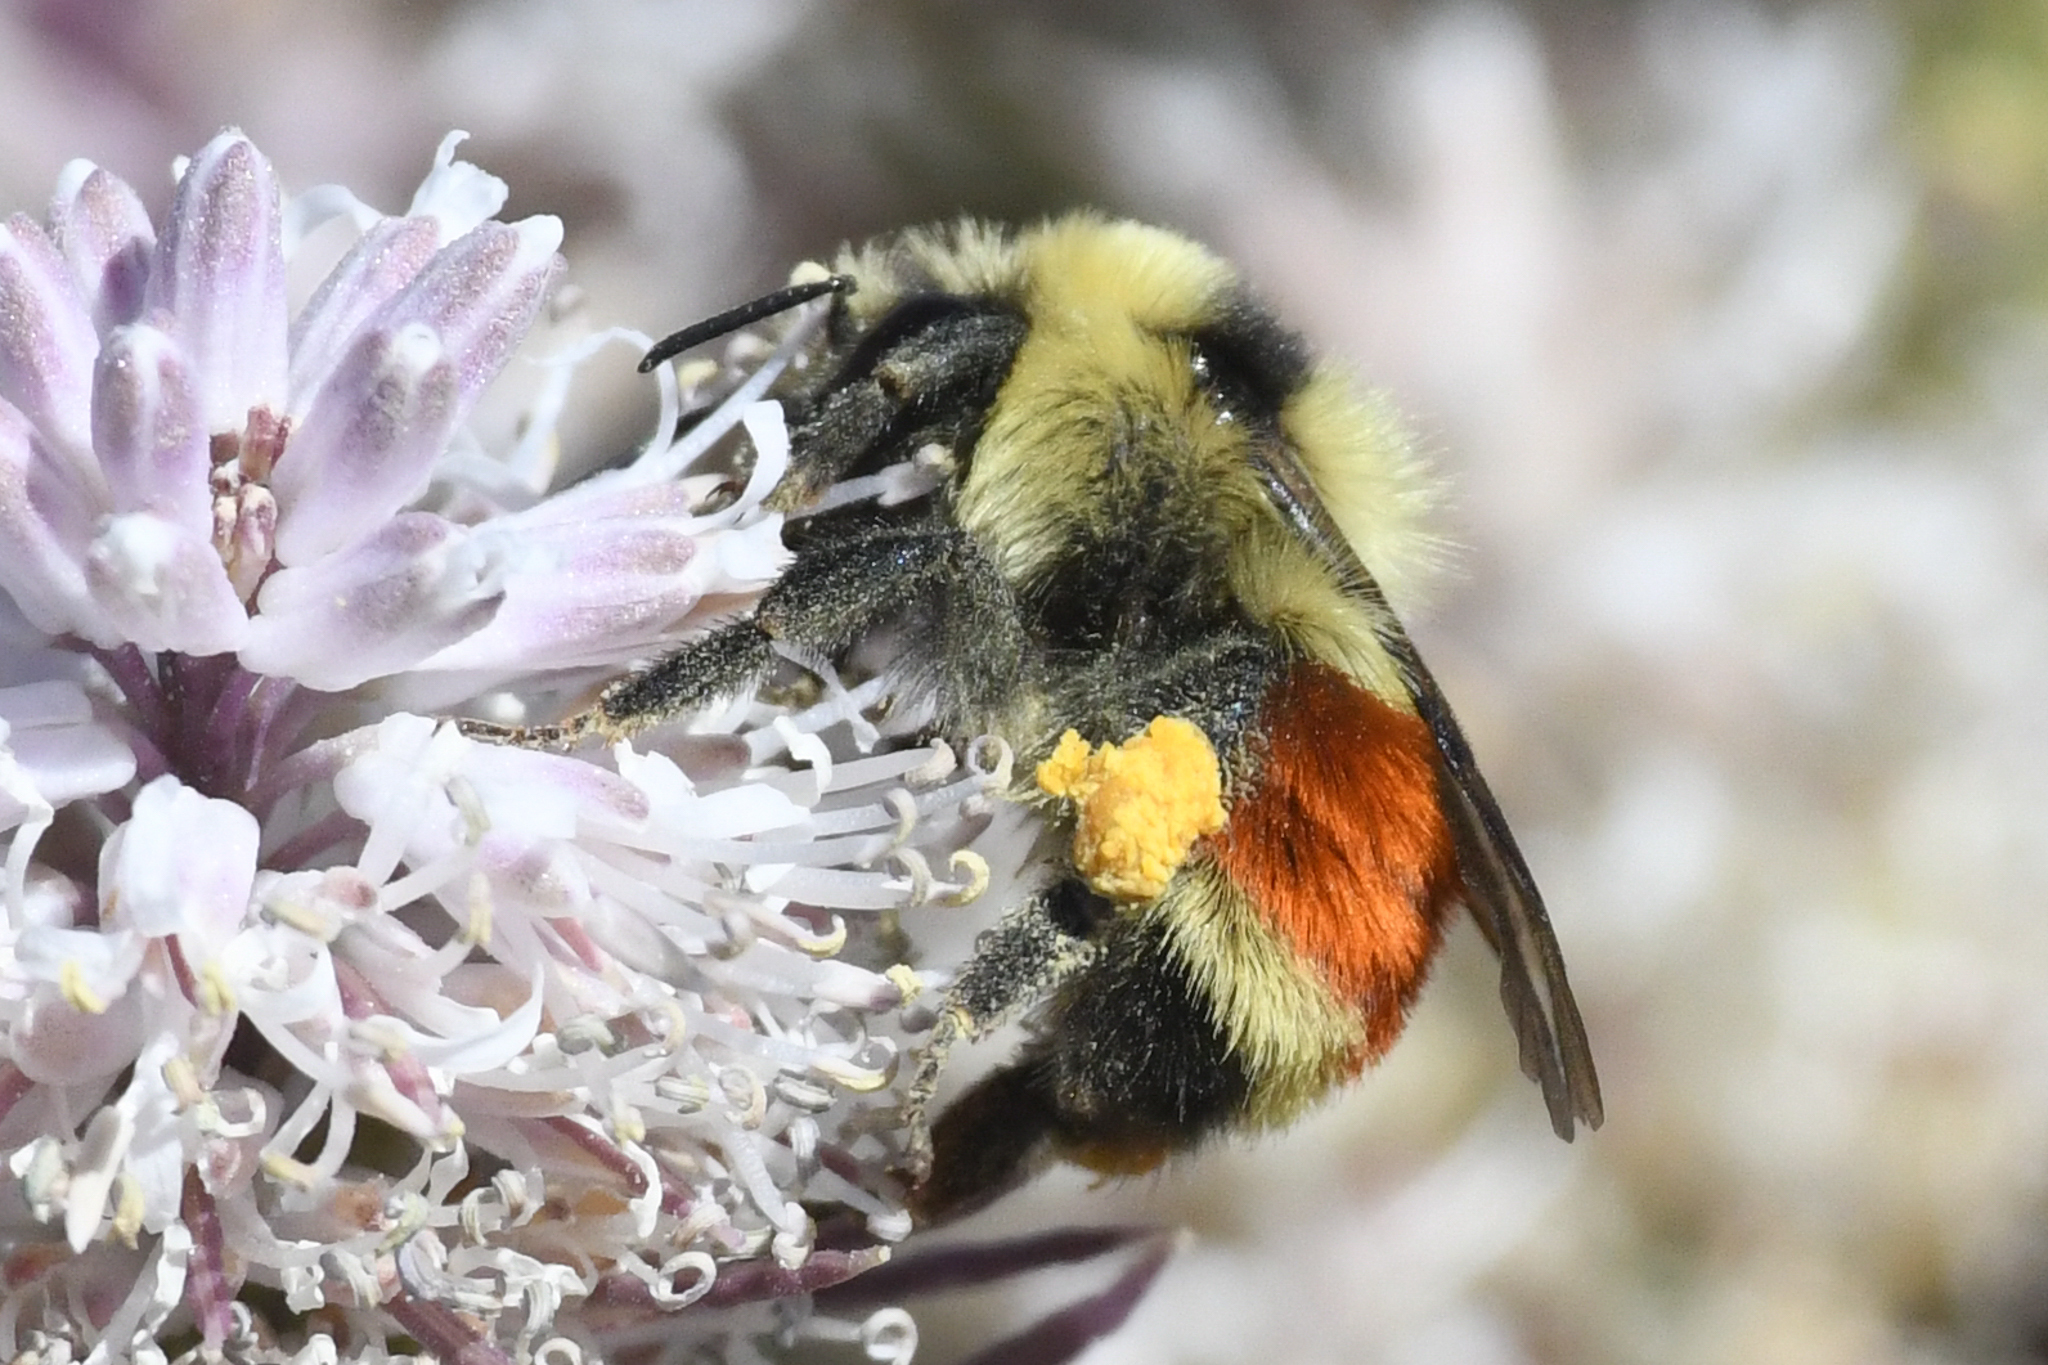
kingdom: Animalia
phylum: Arthropoda
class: Insecta
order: Hymenoptera
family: Apidae
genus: Bombus
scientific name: Bombus huntii
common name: Hunt bumble bee
